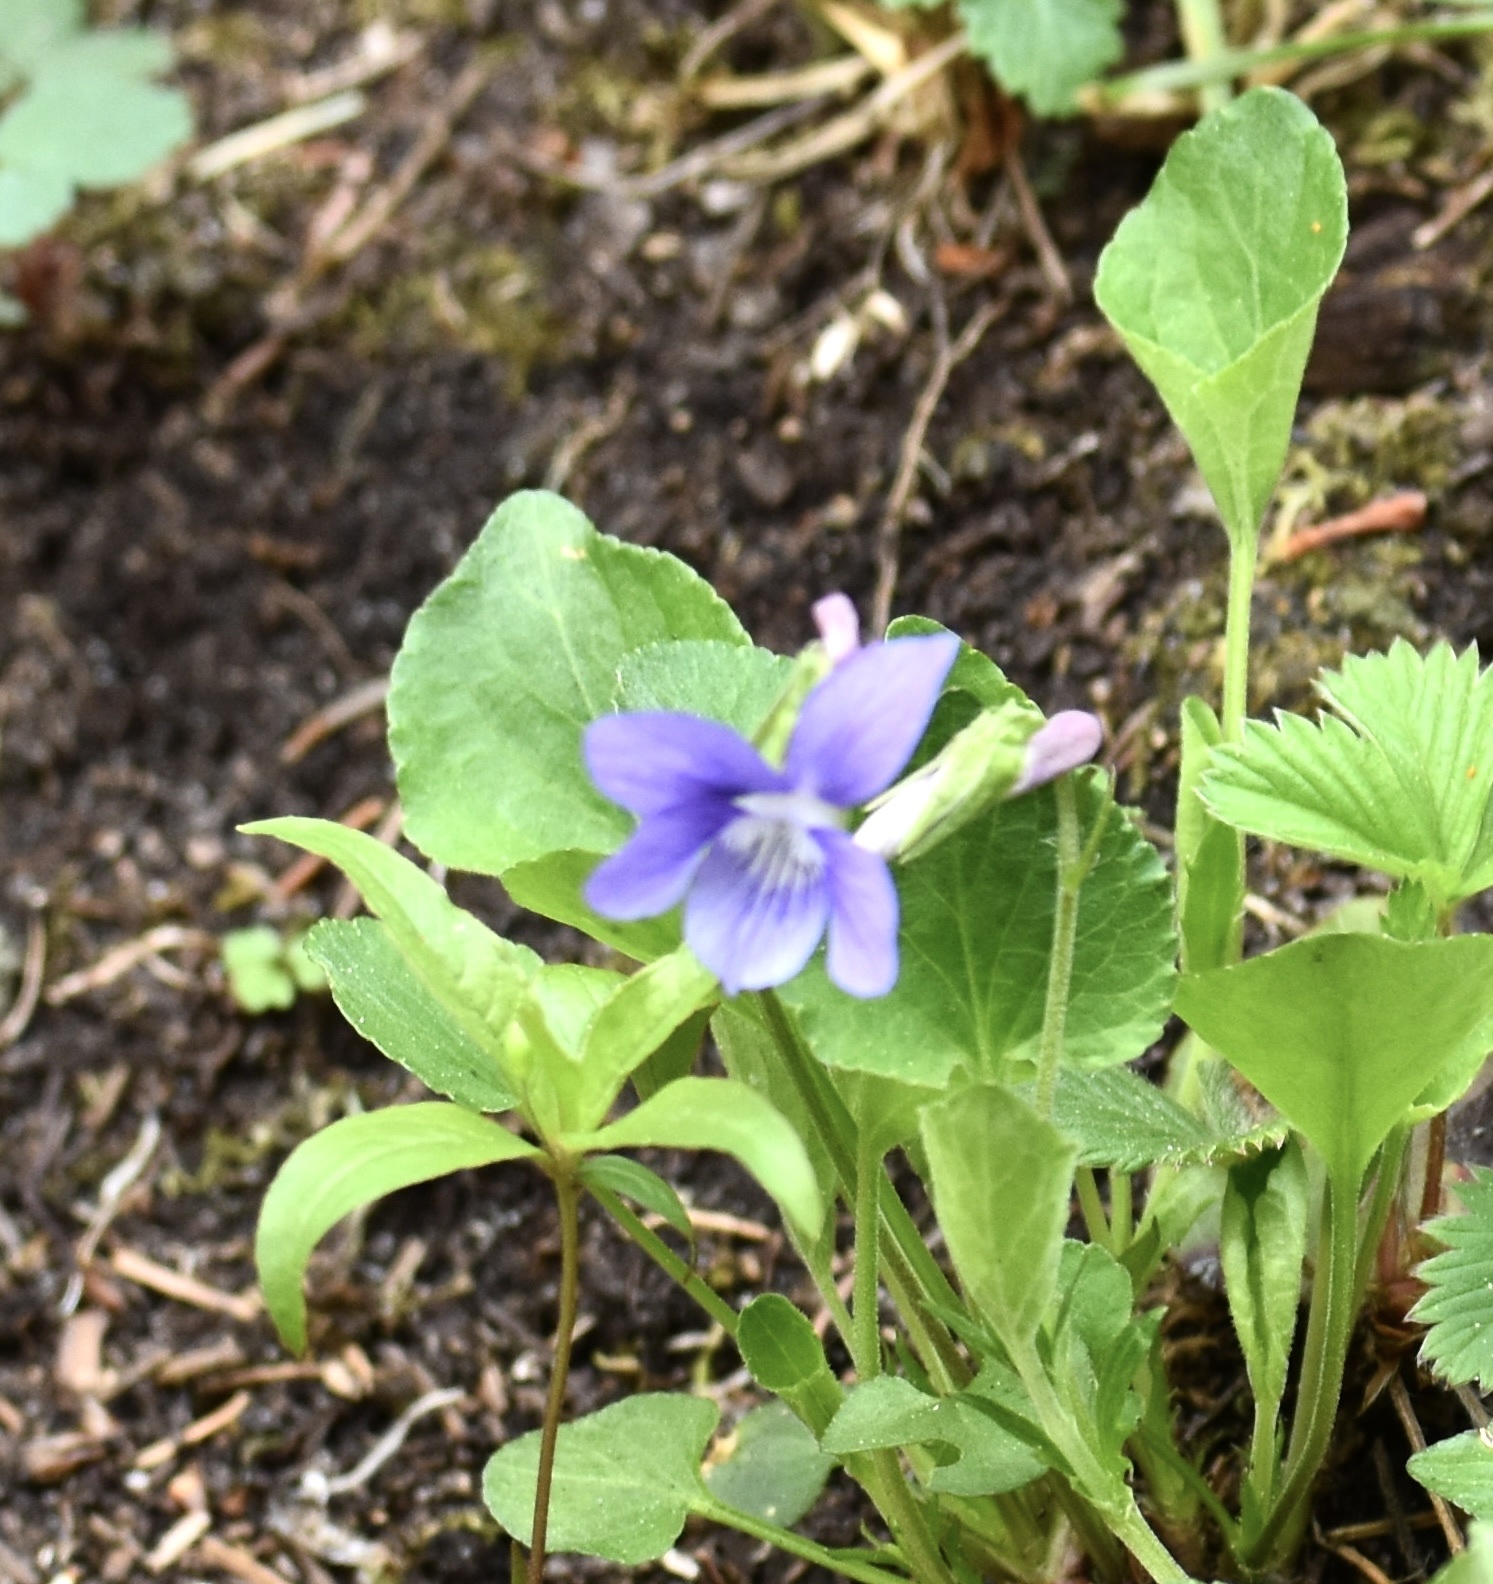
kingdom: Plantae
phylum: Tracheophyta
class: Magnoliopsida
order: Malpighiales
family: Violaceae
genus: Viola
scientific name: Viola adunca
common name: Sand violet
